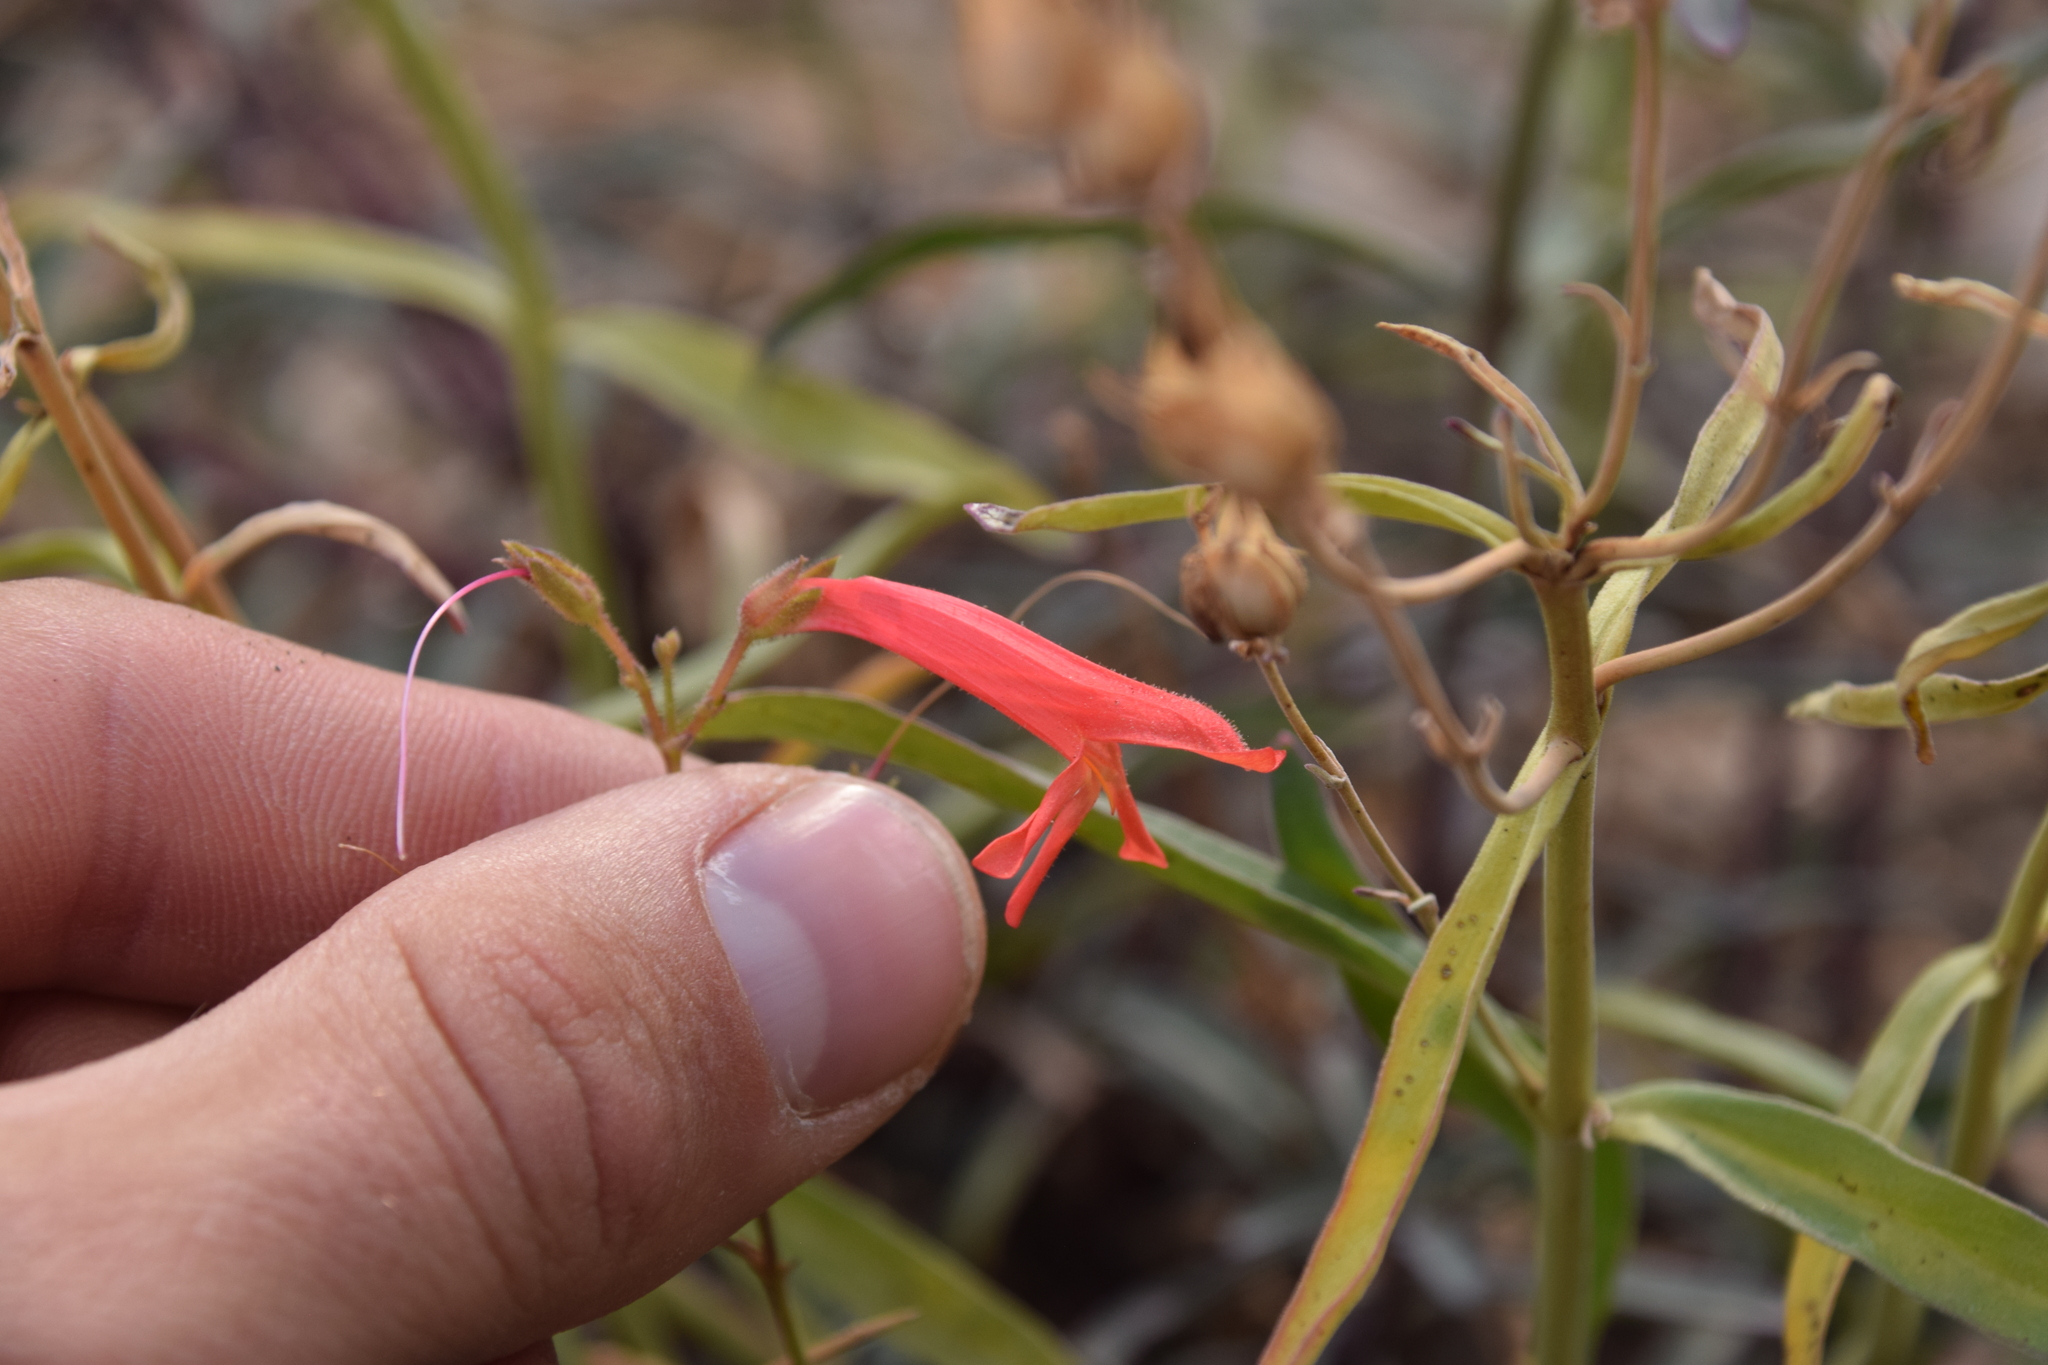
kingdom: Plantae
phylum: Tracheophyta
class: Magnoliopsida
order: Lamiales
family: Plantaginaceae
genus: Penstemon
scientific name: Penstemon rostriflorus
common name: Bridges's penstemon
